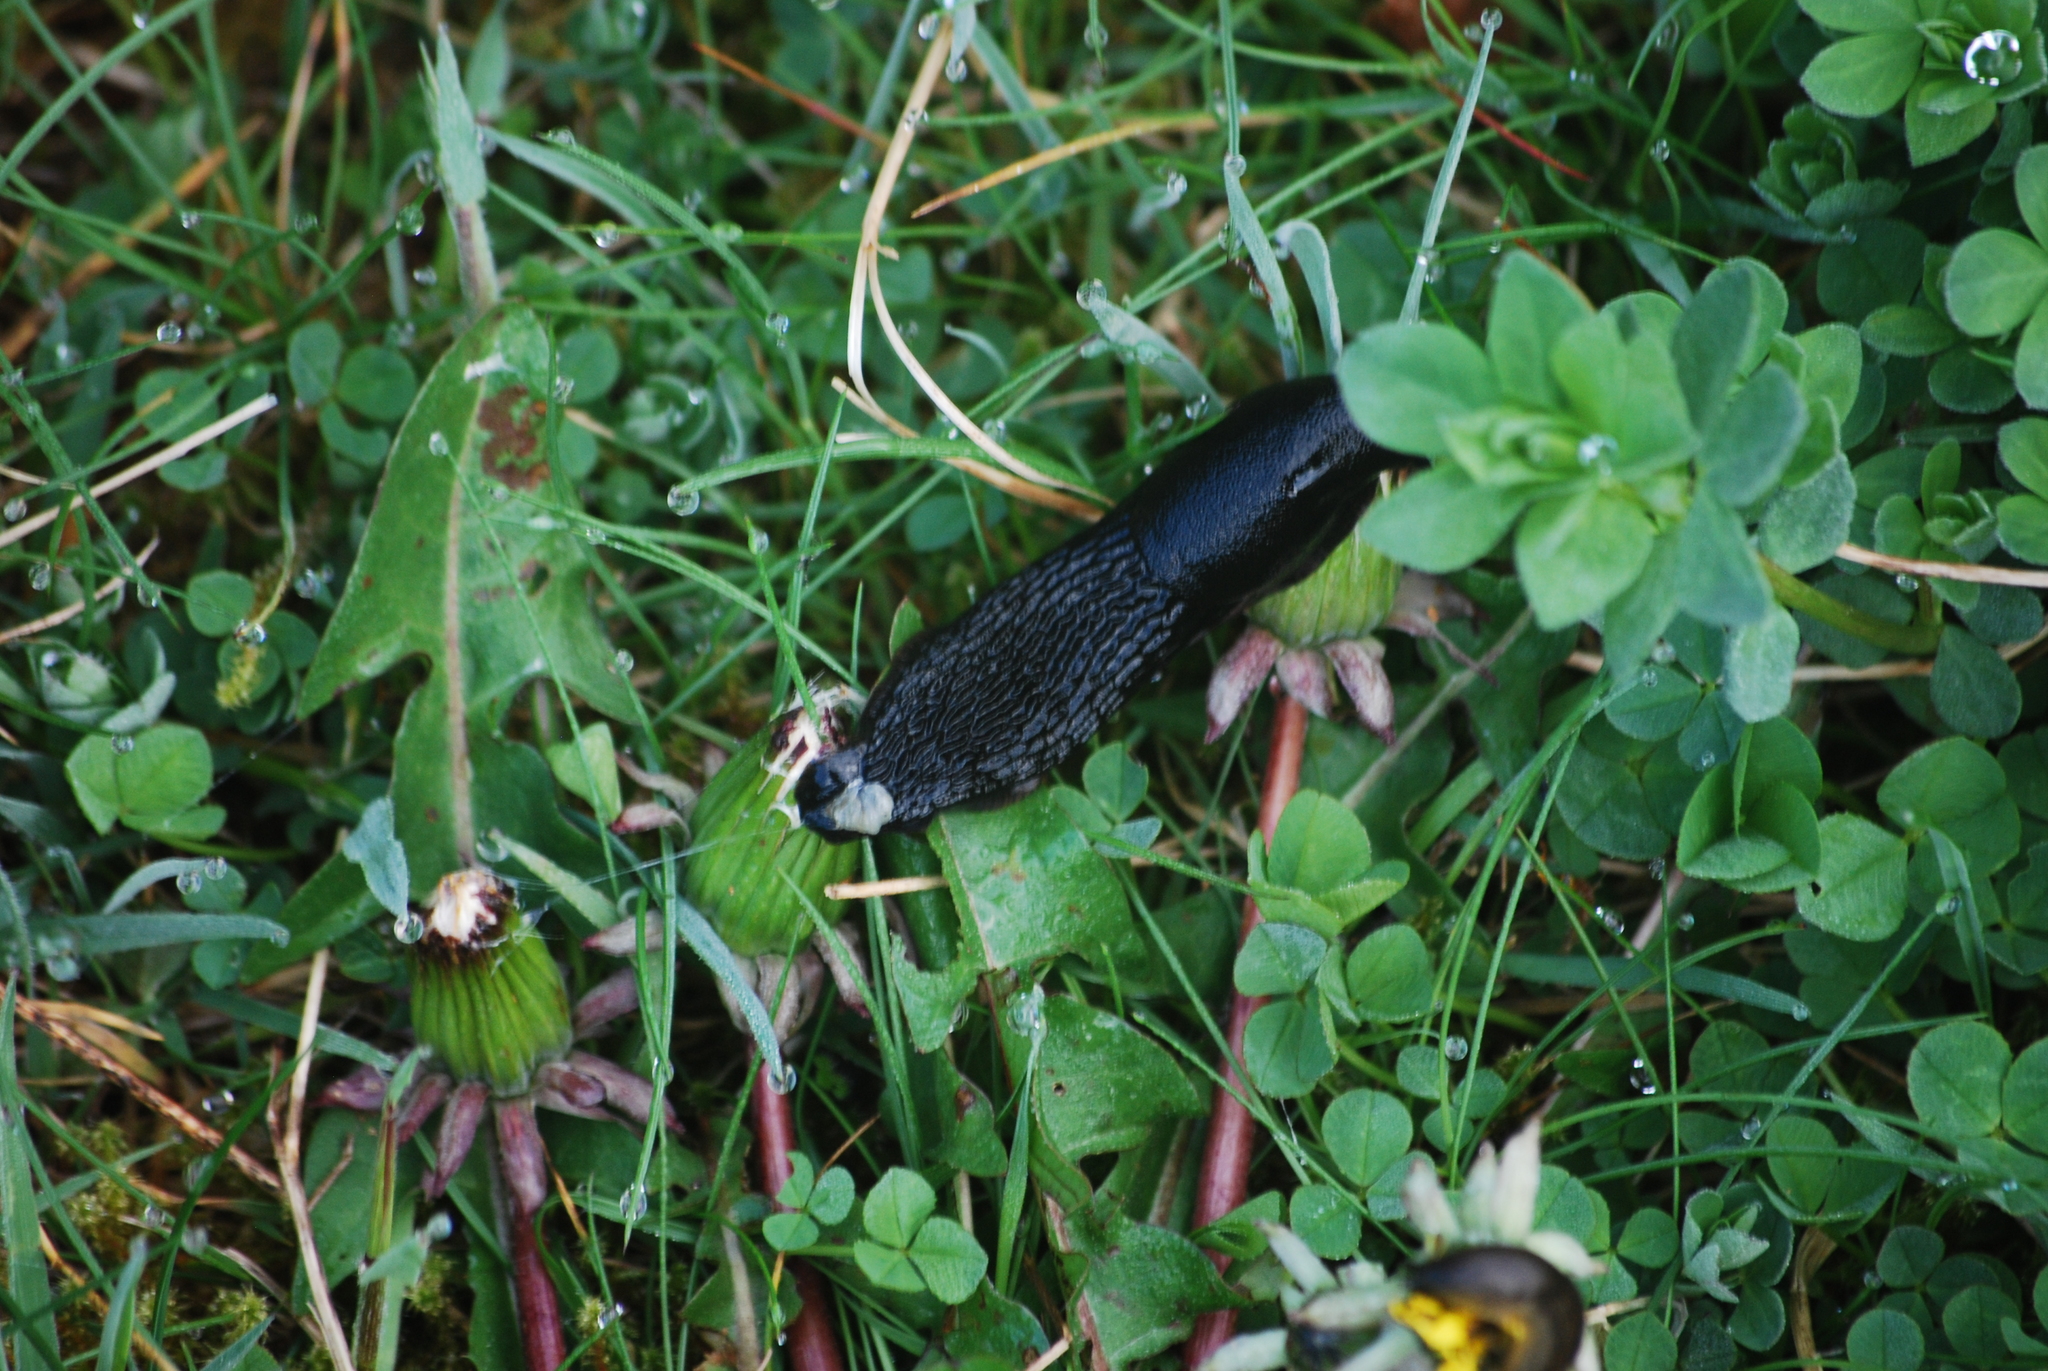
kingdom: Animalia
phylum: Mollusca
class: Gastropoda
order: Stylommatophora
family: Arionidae
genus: Arion
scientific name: Arion
